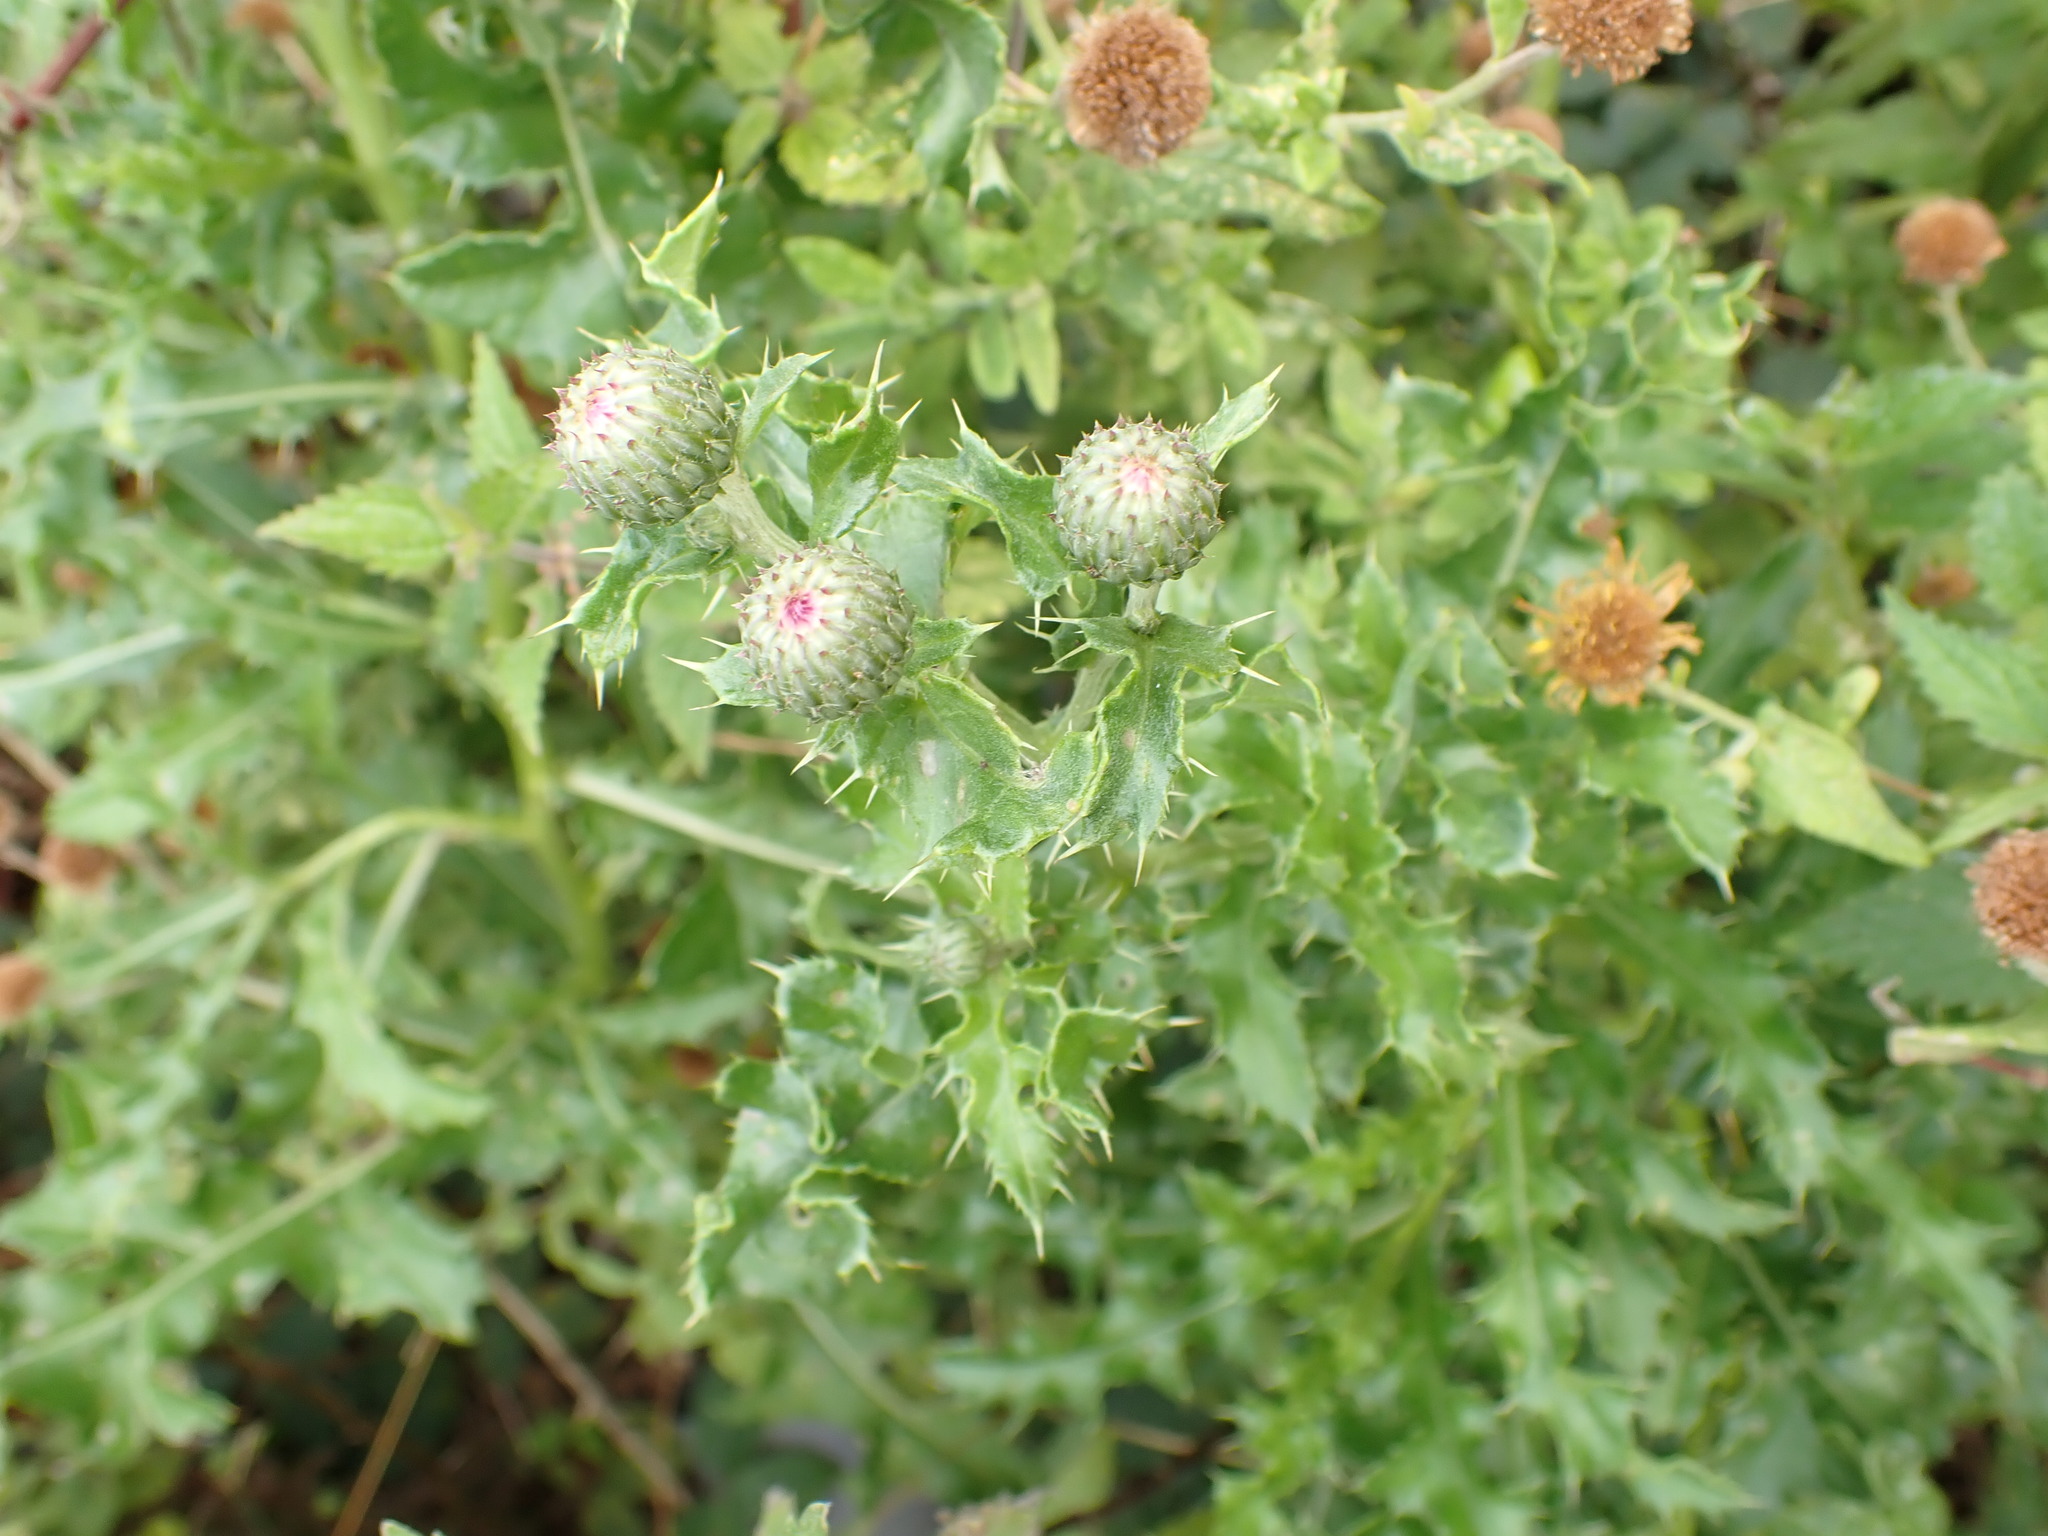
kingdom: Plantae
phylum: Tracheophyta
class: Magnoliopsida
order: Asterales
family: Asteraceae
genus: Cirsium
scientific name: Cirsium arvense
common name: Creeping thistle
